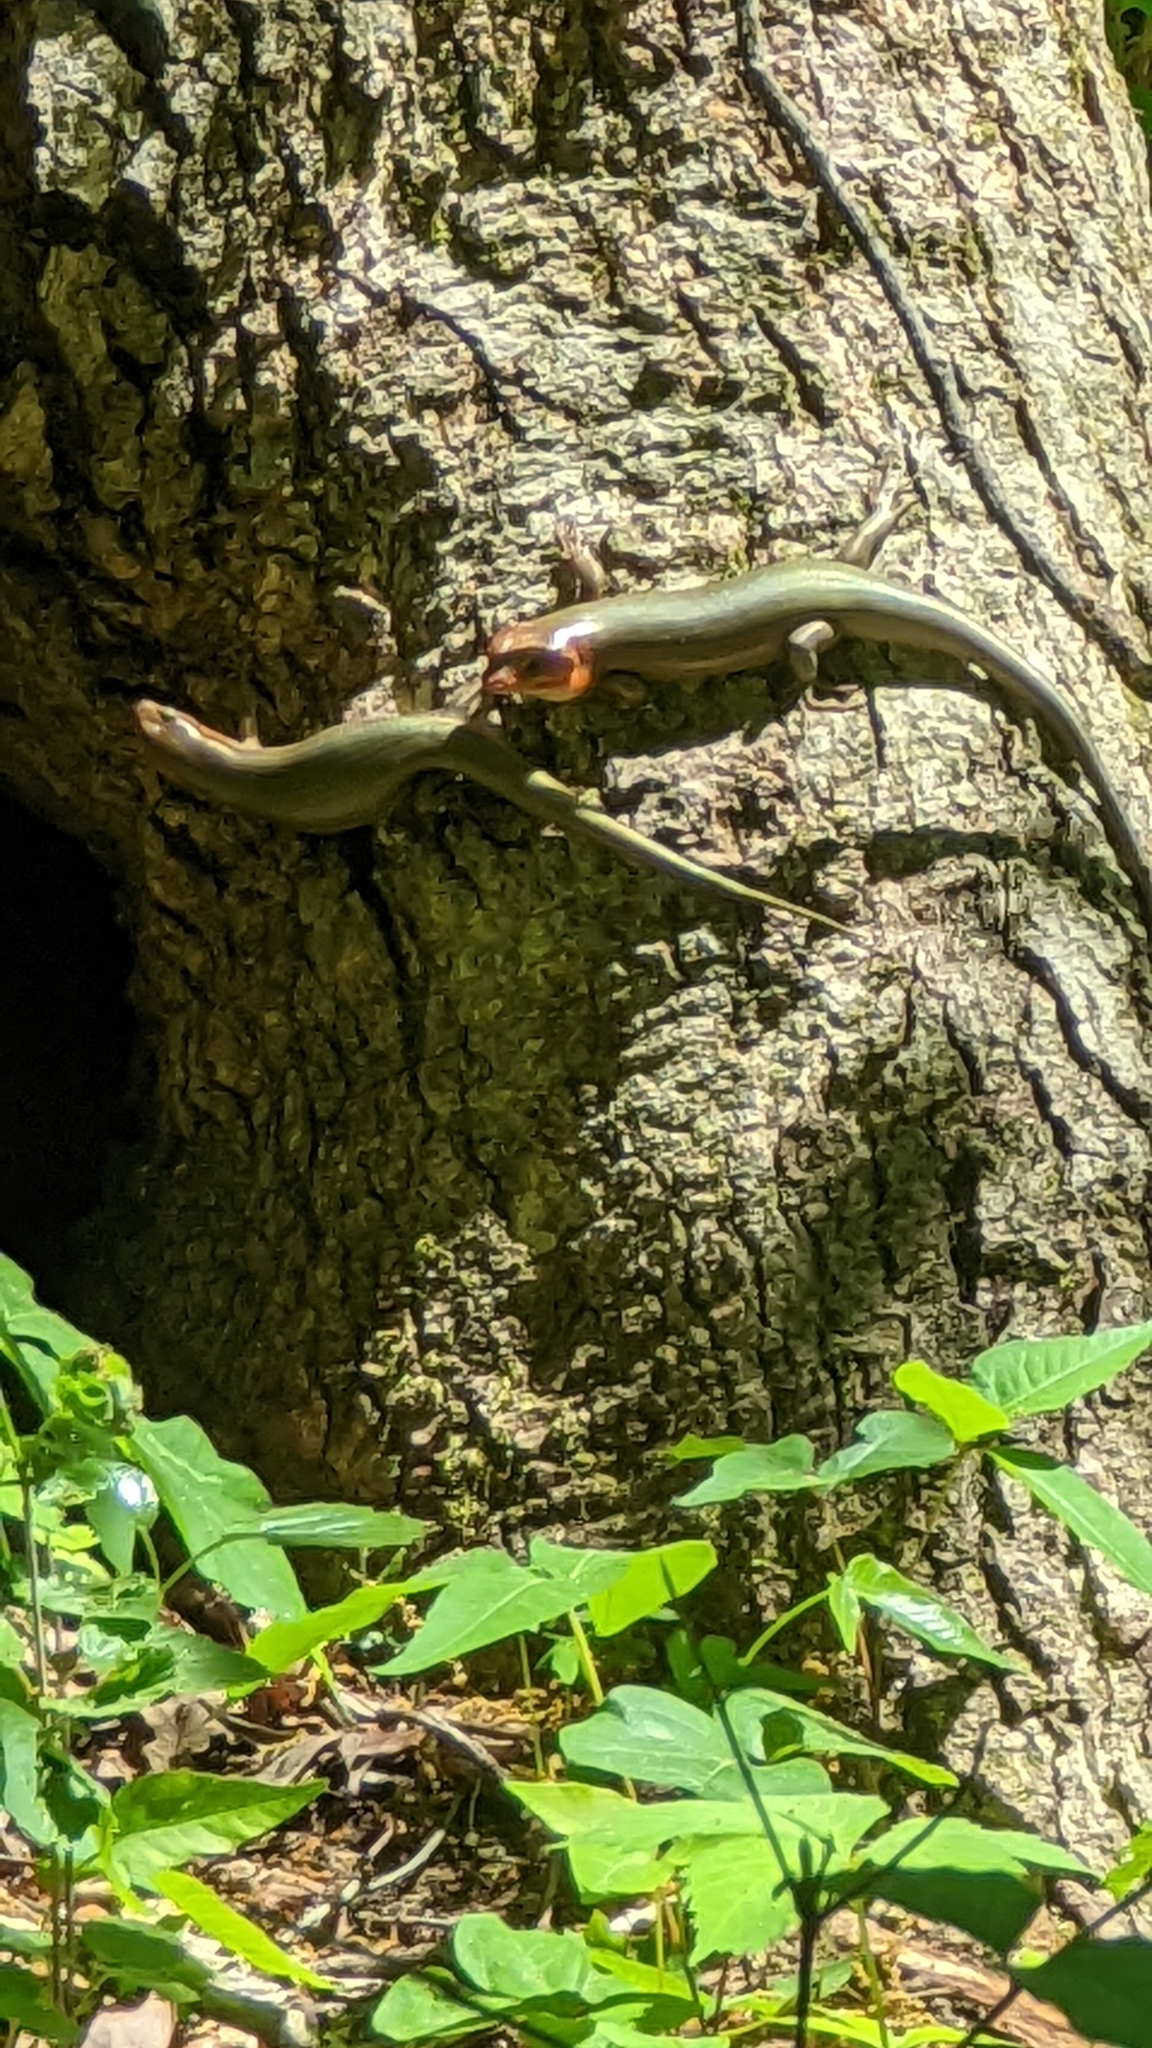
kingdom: Animalia
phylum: Chordata
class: Squamata
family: Scincidae
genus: Plestiodon
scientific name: Plestiodon laticeps
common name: Broadhead skink
